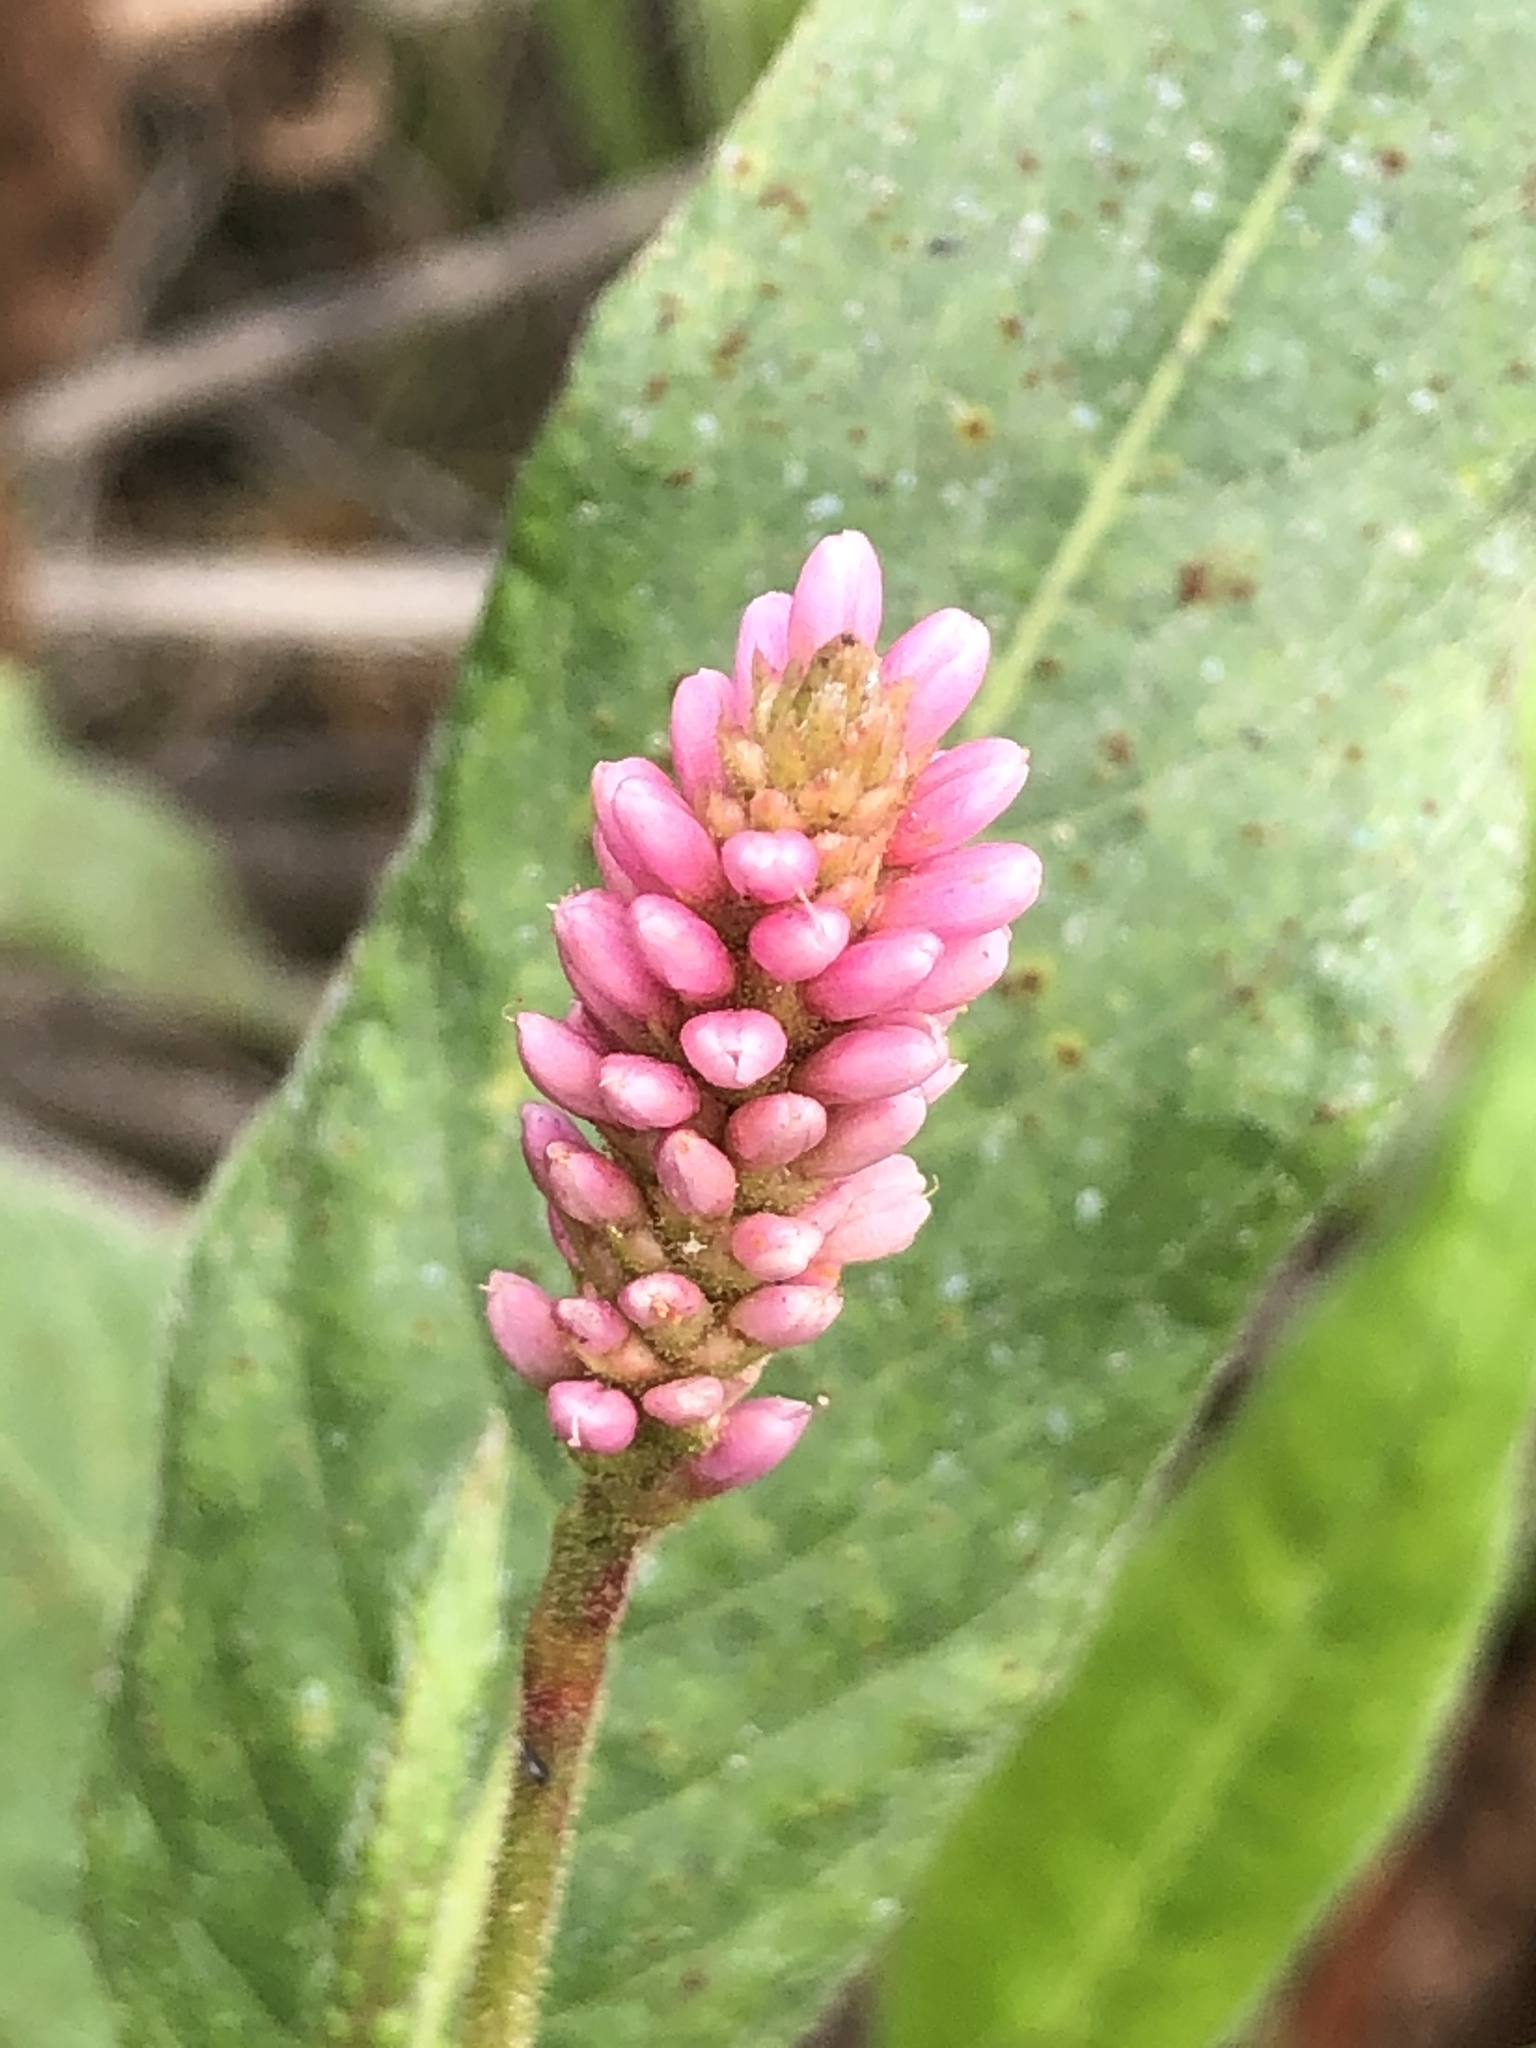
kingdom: Plantae
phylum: Tracheophyta
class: Magnoliopsida
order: Caryophyllales
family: Polygonaceae
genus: Persicaria
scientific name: Persicaria amphibia
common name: Amphibious bistort
